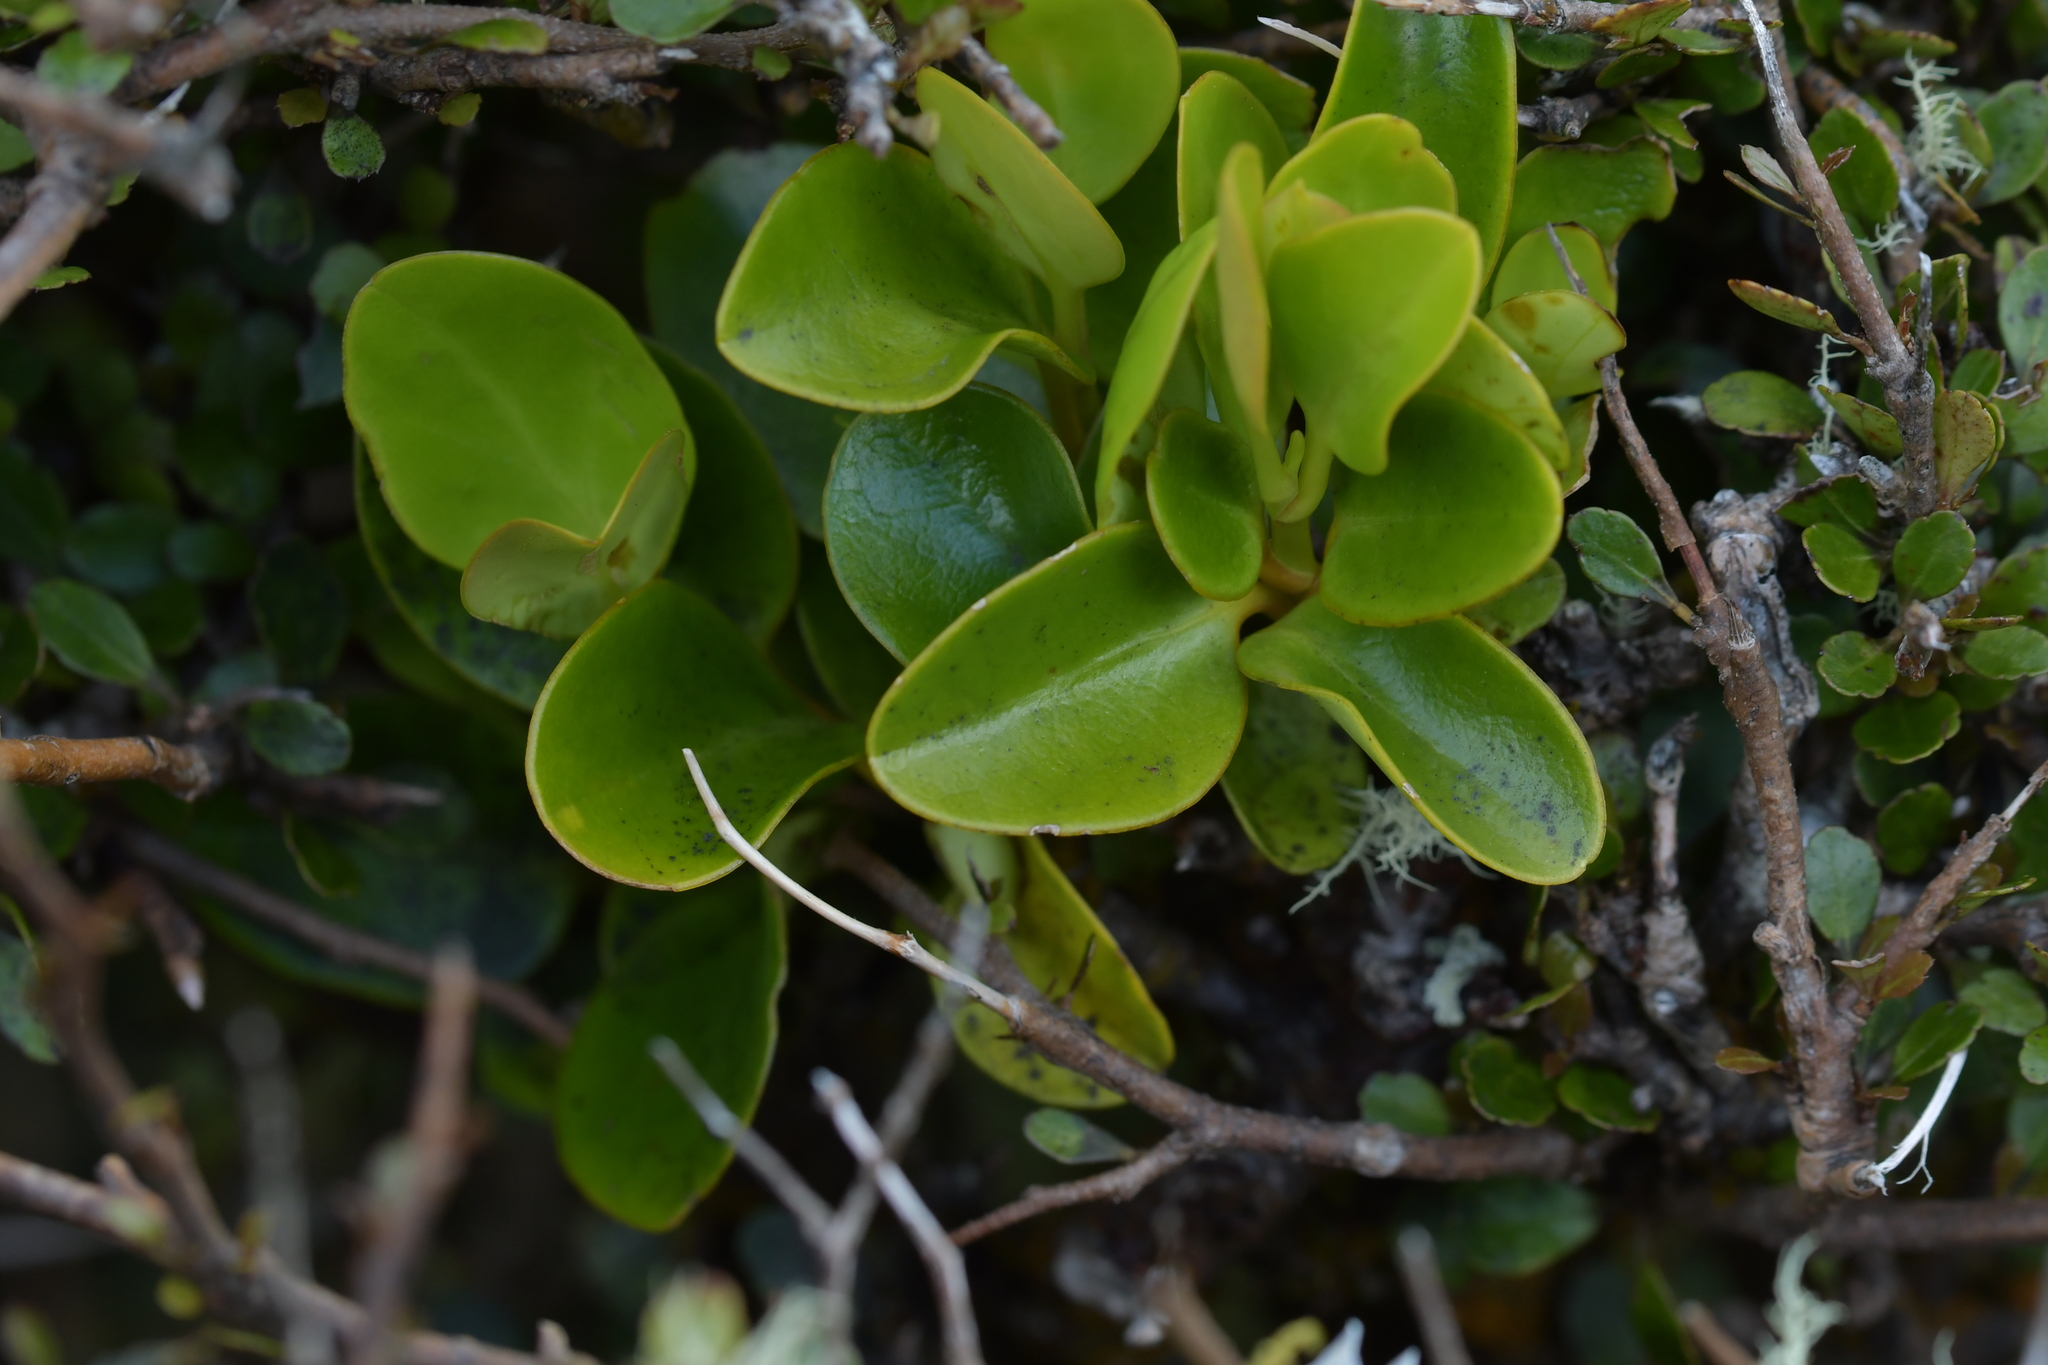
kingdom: Plantae
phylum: Tracheophyta
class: Magnoliopsida
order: Apiales
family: Griseliniaceae
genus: Griselinia
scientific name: Griselinia littoralis
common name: New zealand broadleaf
